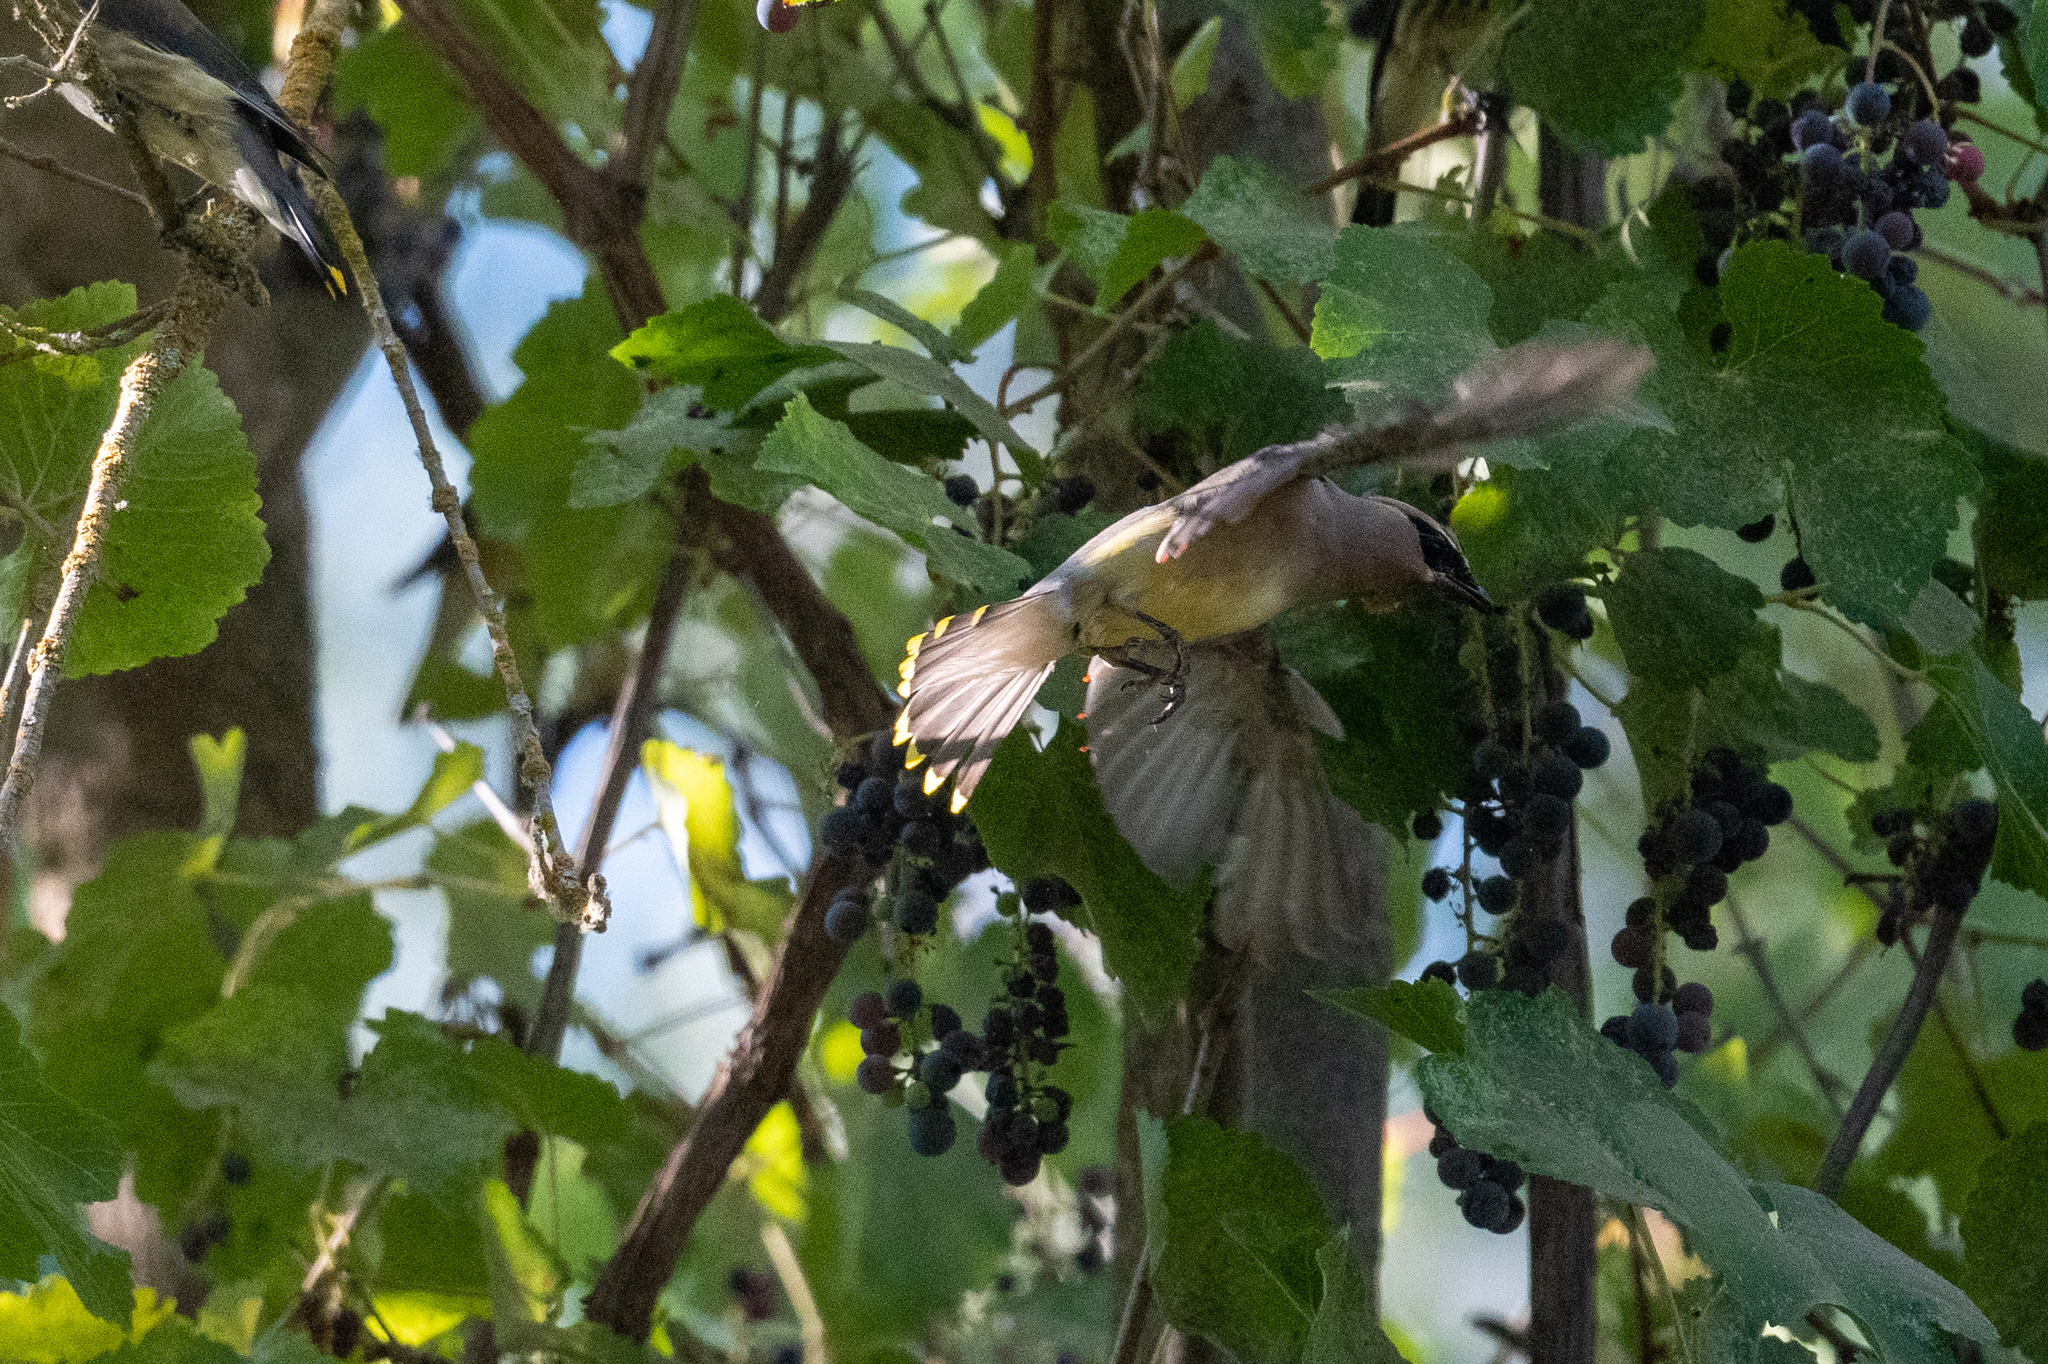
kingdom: Animalia
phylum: Chordata
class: Aves
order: Passeriformes
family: Bombycillidae
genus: Bombycilla
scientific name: Bombycilla cedrorum
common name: Cedar waxwing
